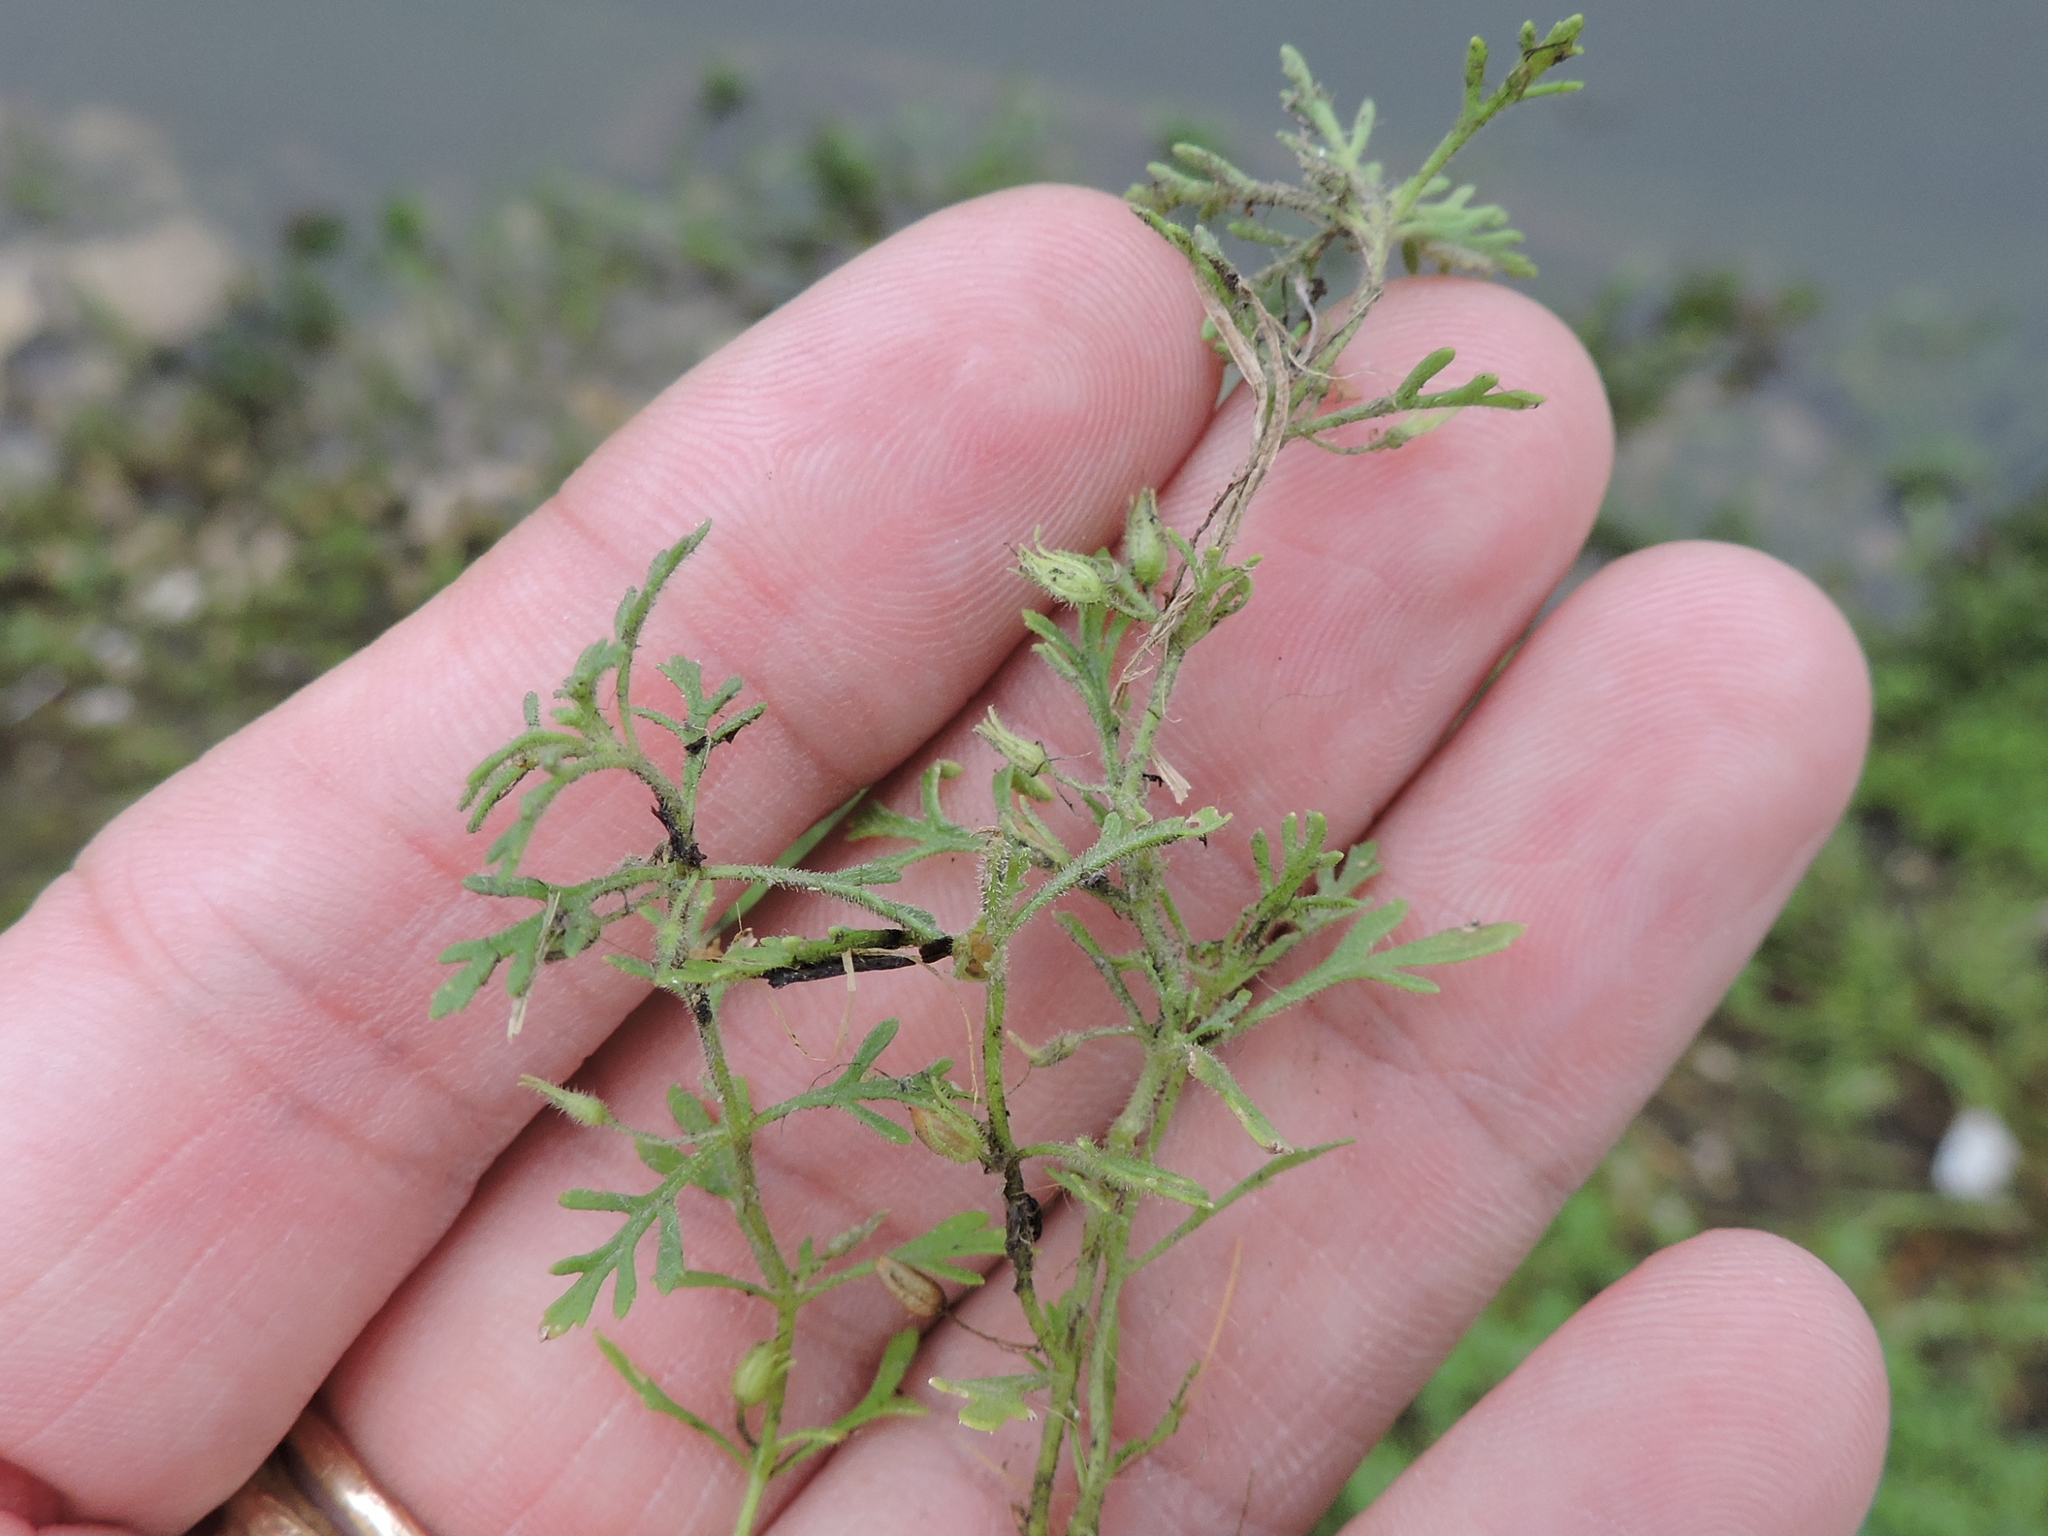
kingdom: Plantae
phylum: Tracheophyta
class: Magnoliopsida
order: Lamiales
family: Plantaginaceae
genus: Leucospora
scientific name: Leucospora multifida
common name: Narrow-leaf paleseed
